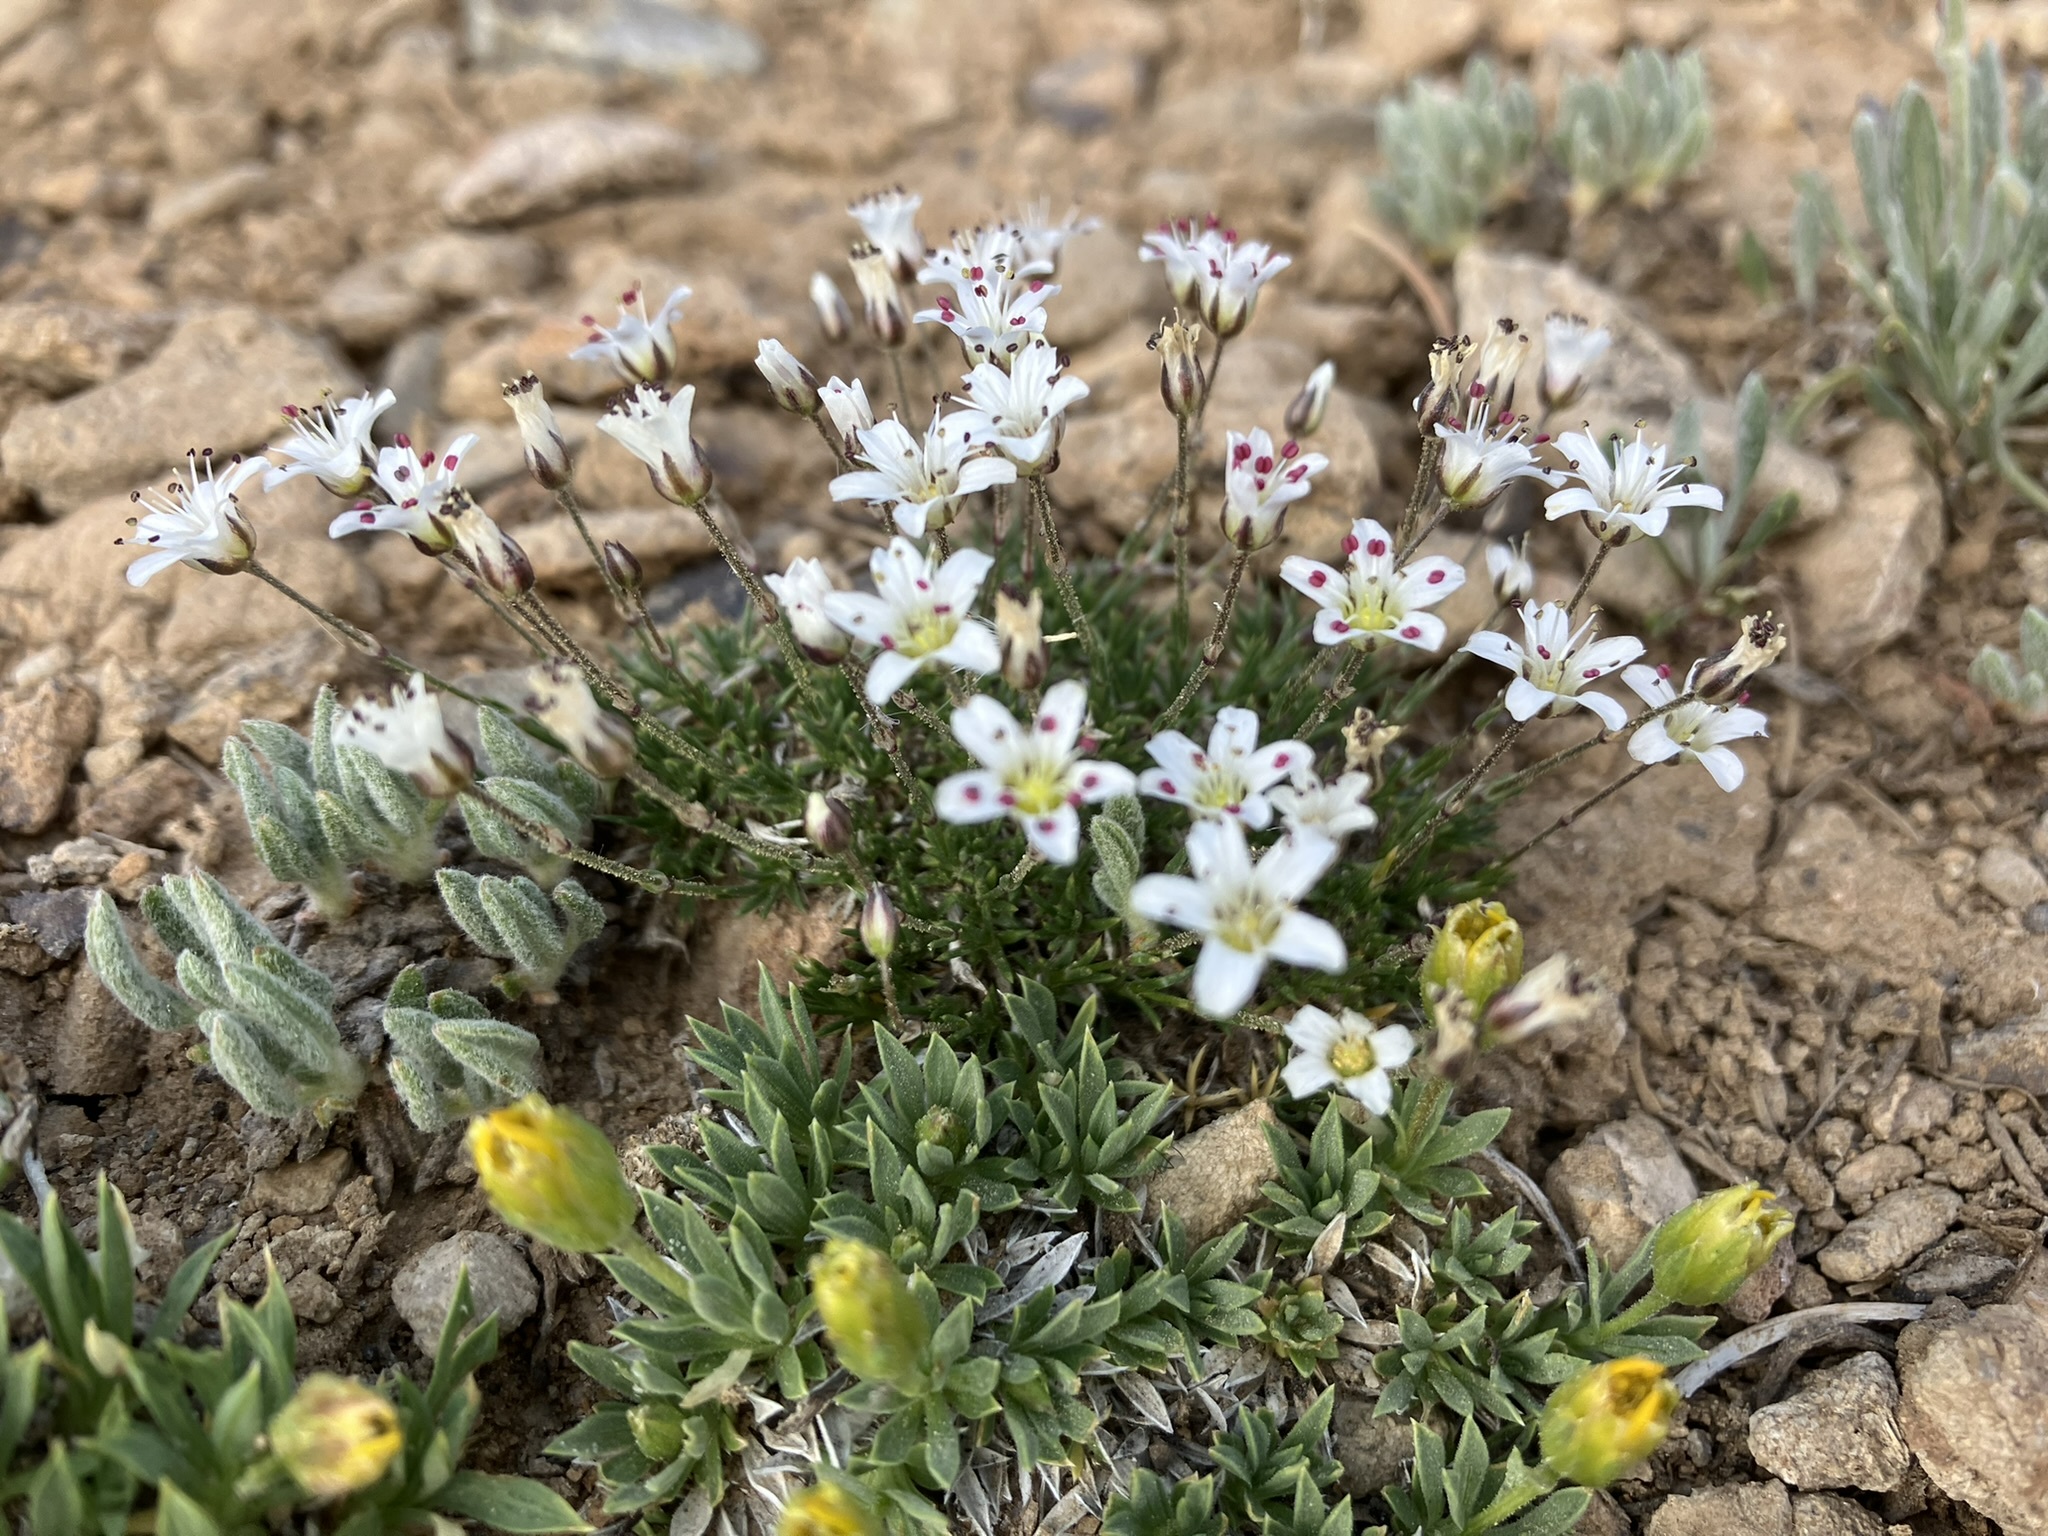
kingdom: Plantae
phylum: Tracheophyta
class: Magnoliopsida
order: Caryophyllales
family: Caryophyllaceae
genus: Eremogone
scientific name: Eremogone kingii
